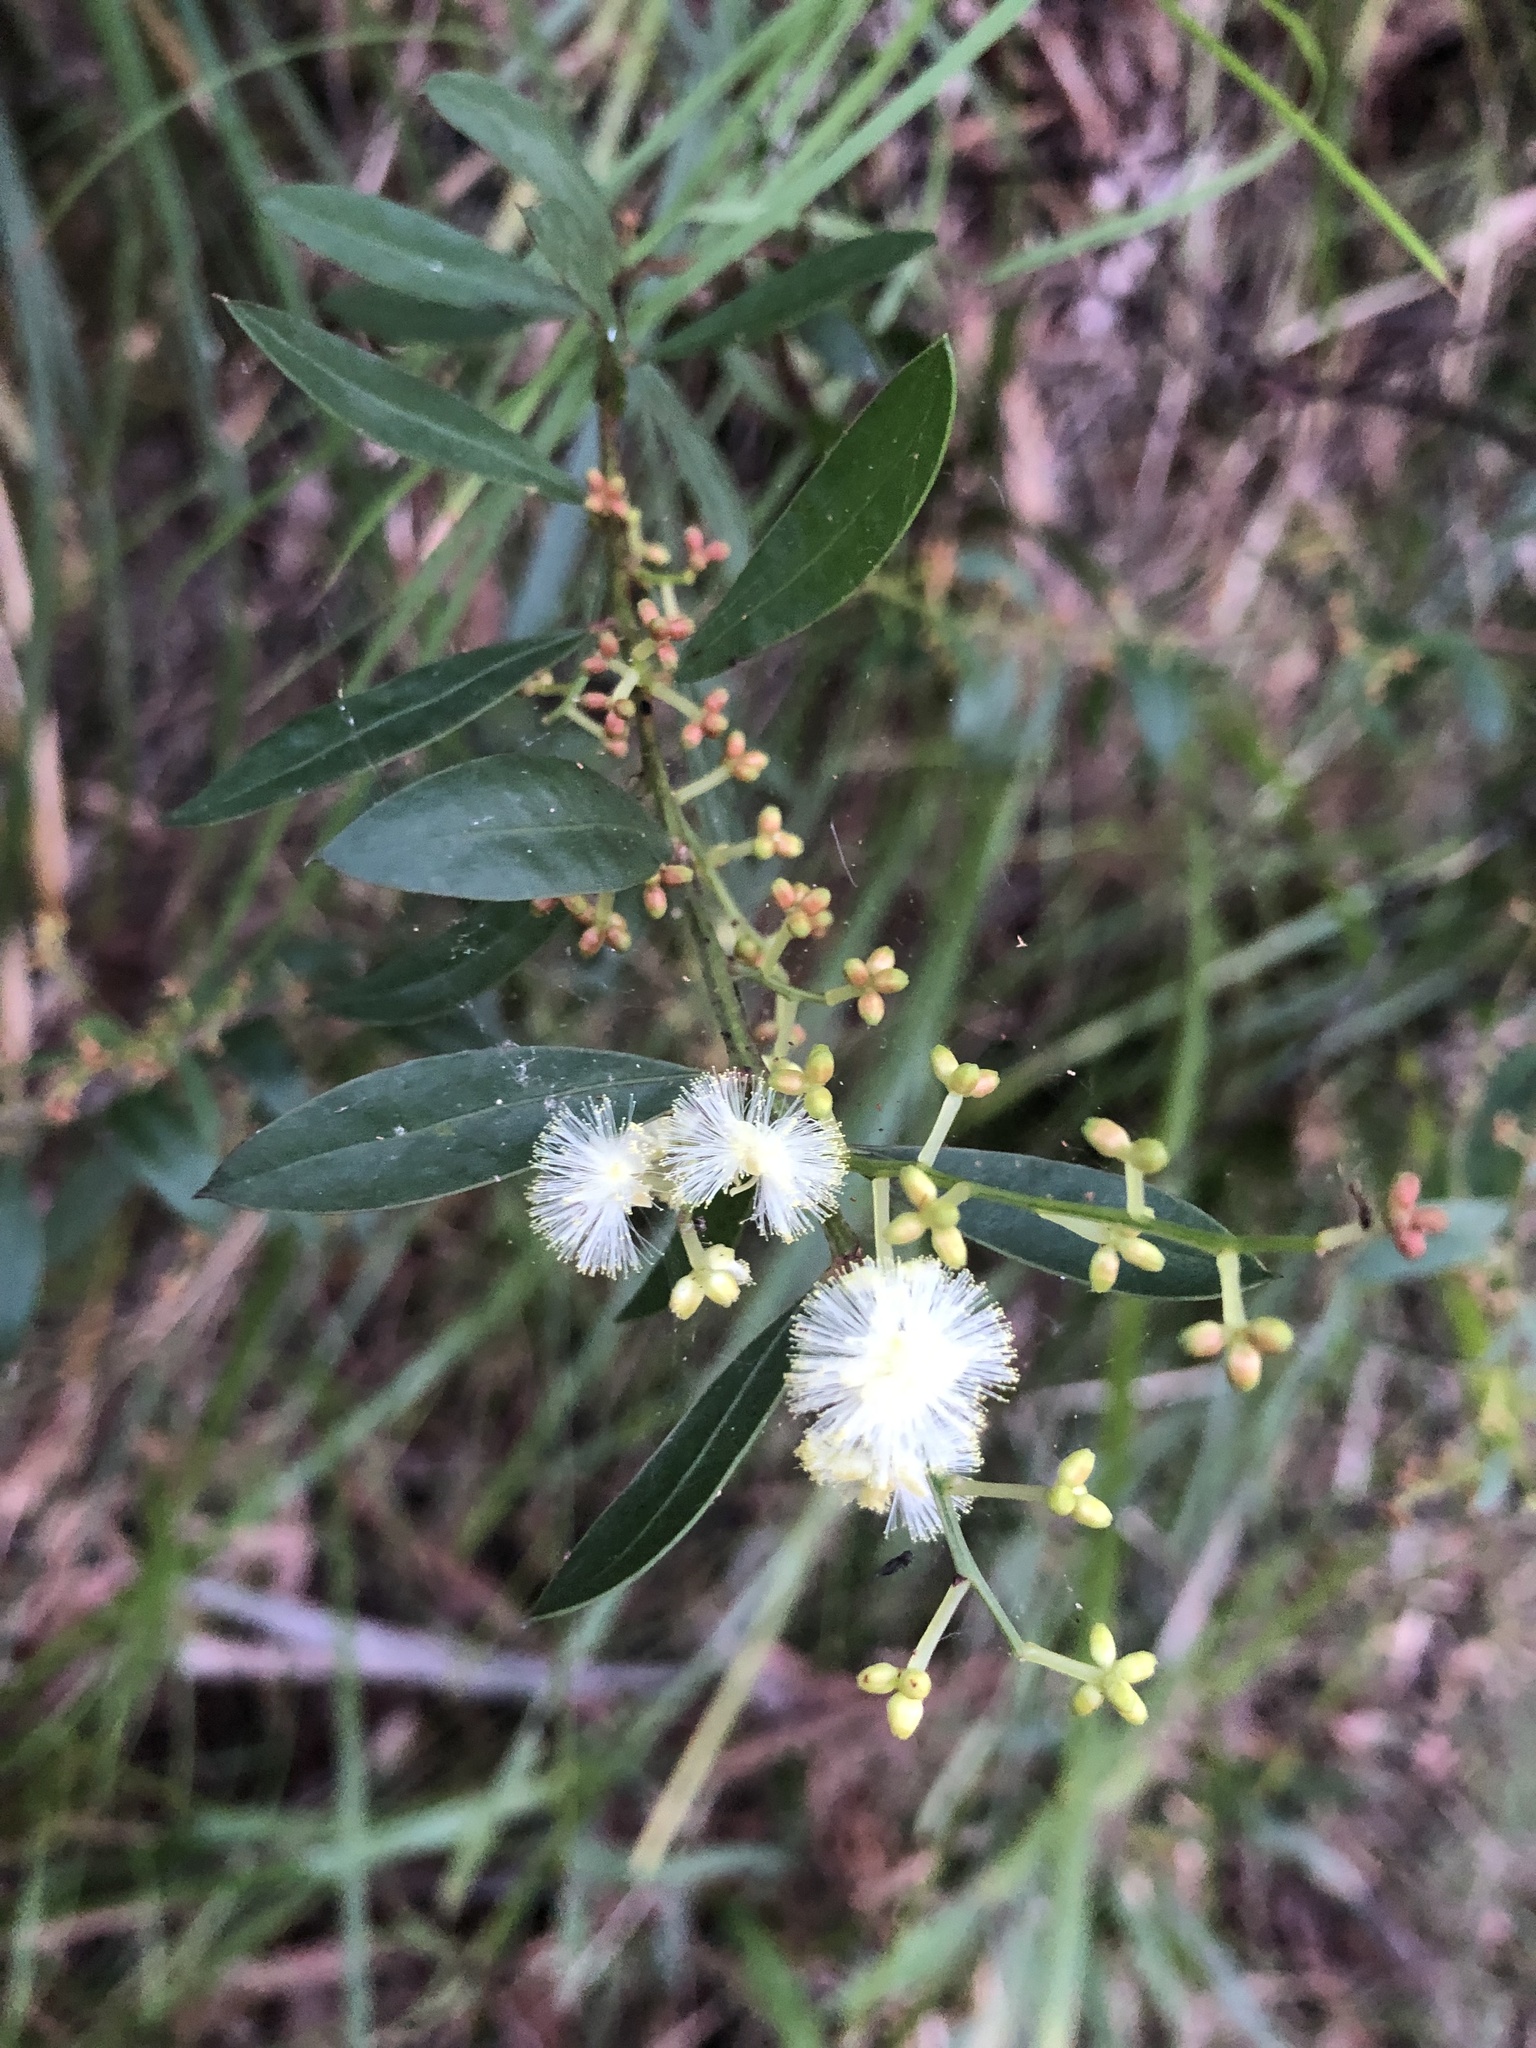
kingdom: Plantae
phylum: Tracheophyta
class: Magnoliopsida
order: Fabales
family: Fabaceae
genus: Acacia
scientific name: Acacia myrtifolia
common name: Myrtle wattle
